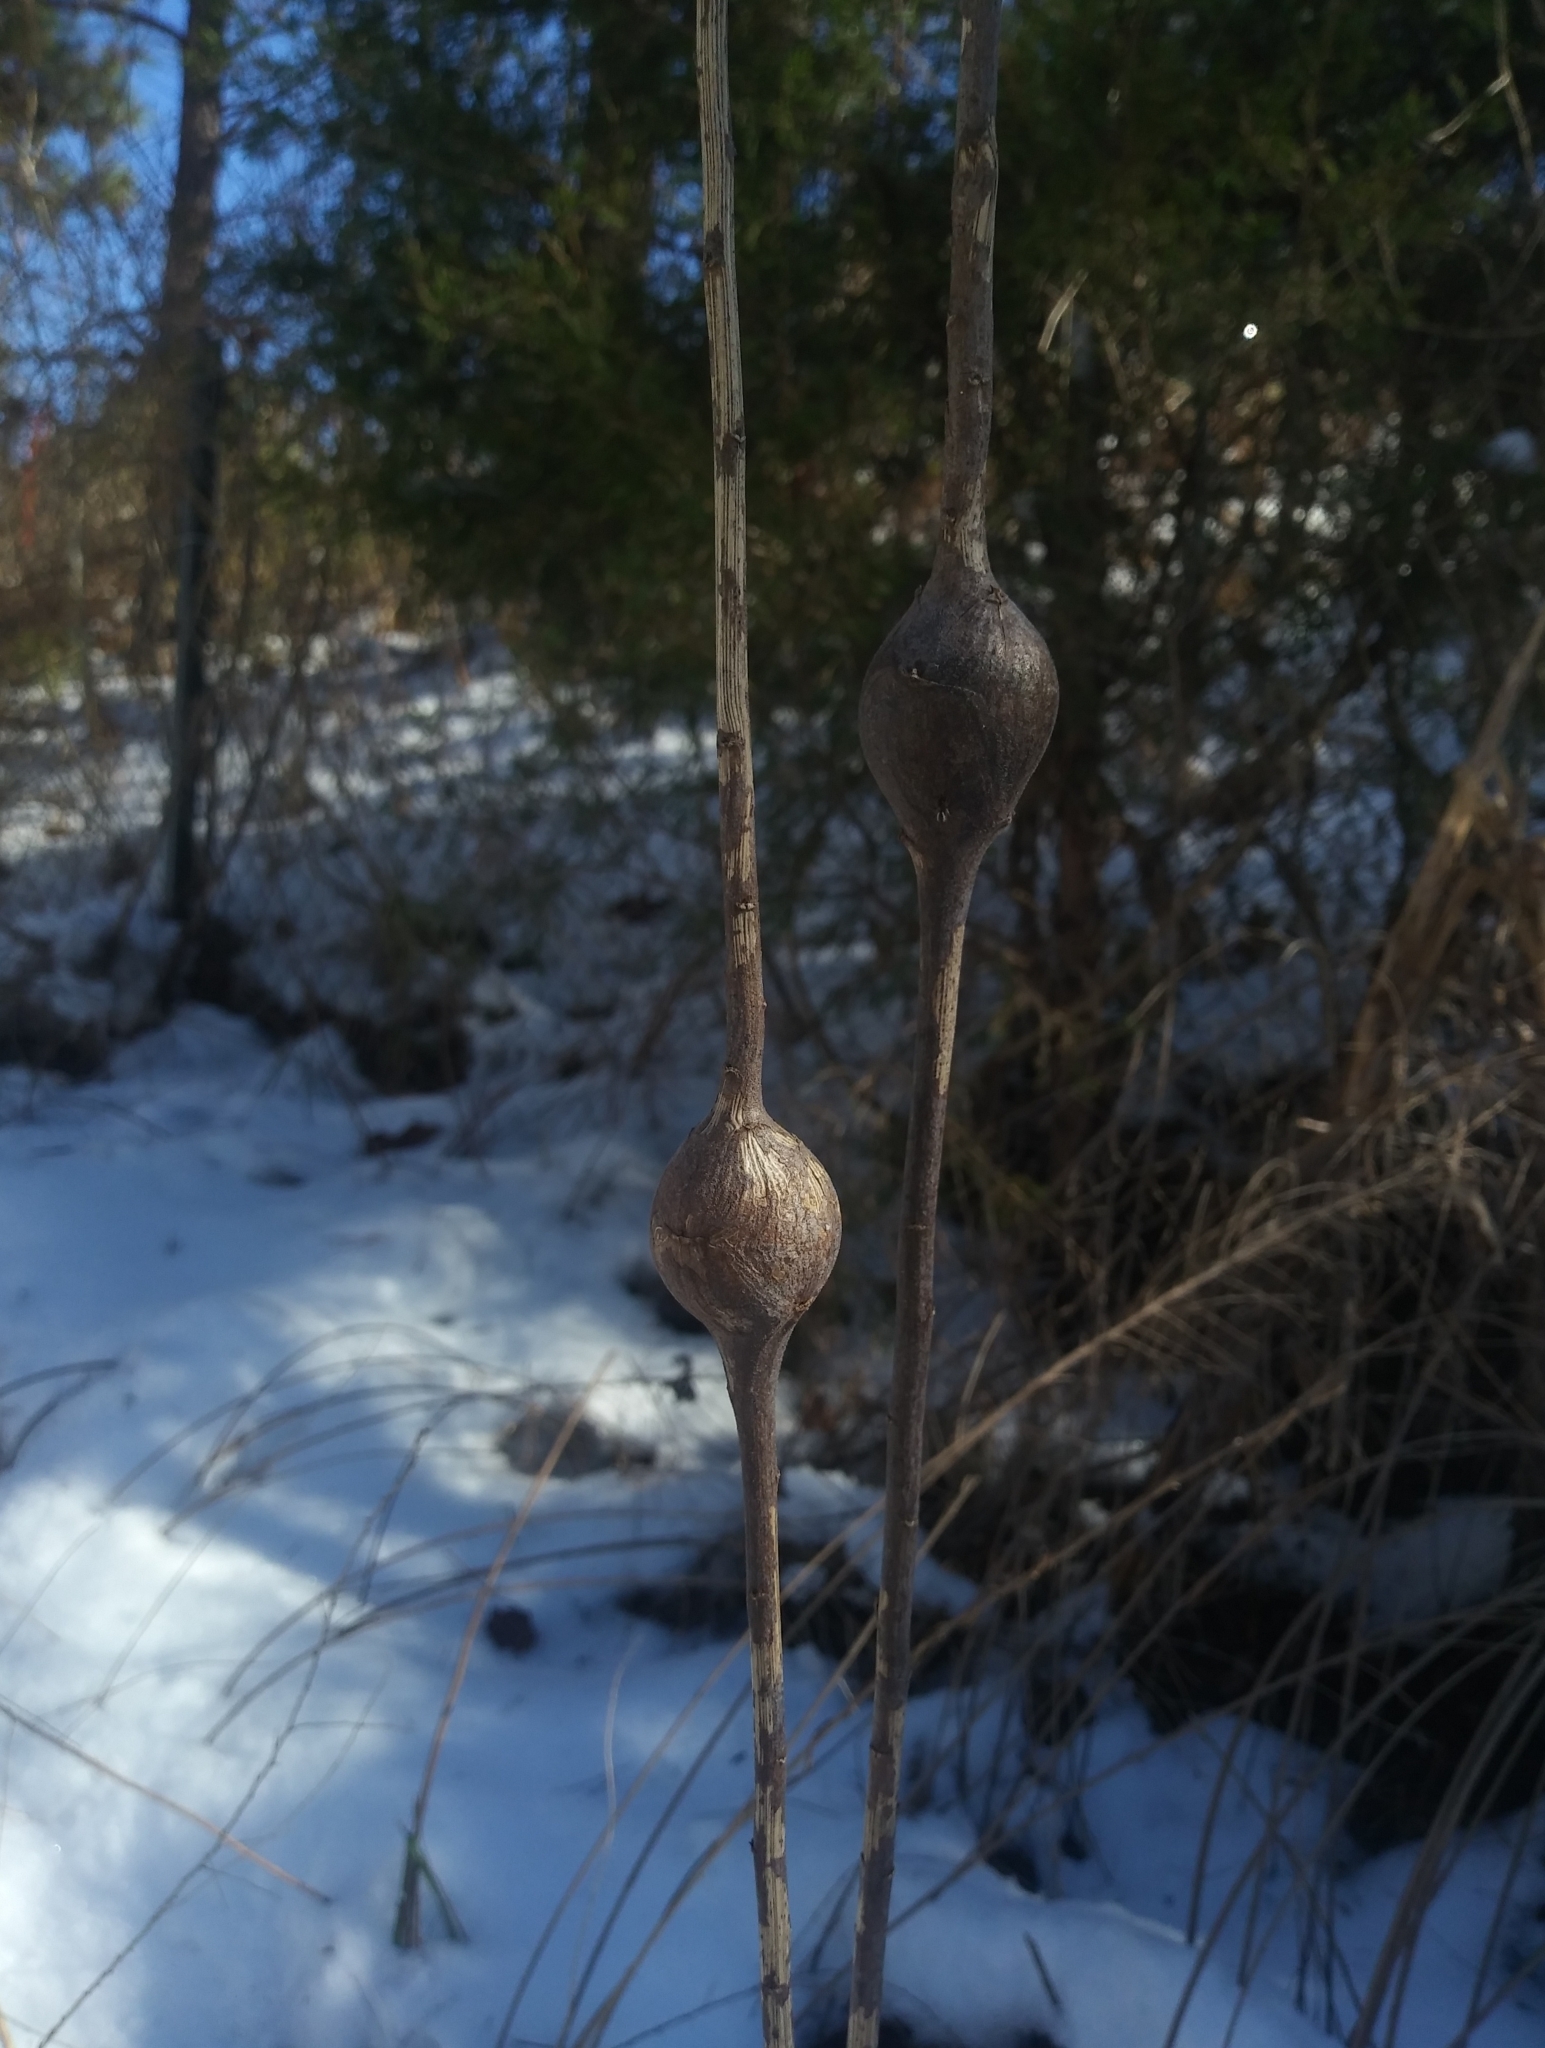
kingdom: Animalia
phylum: Arthropoda
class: Insecta
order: Diptera
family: Tephritidae
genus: Eurosta
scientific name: Eurosta solidaginis
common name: Goldenrod gall fly
